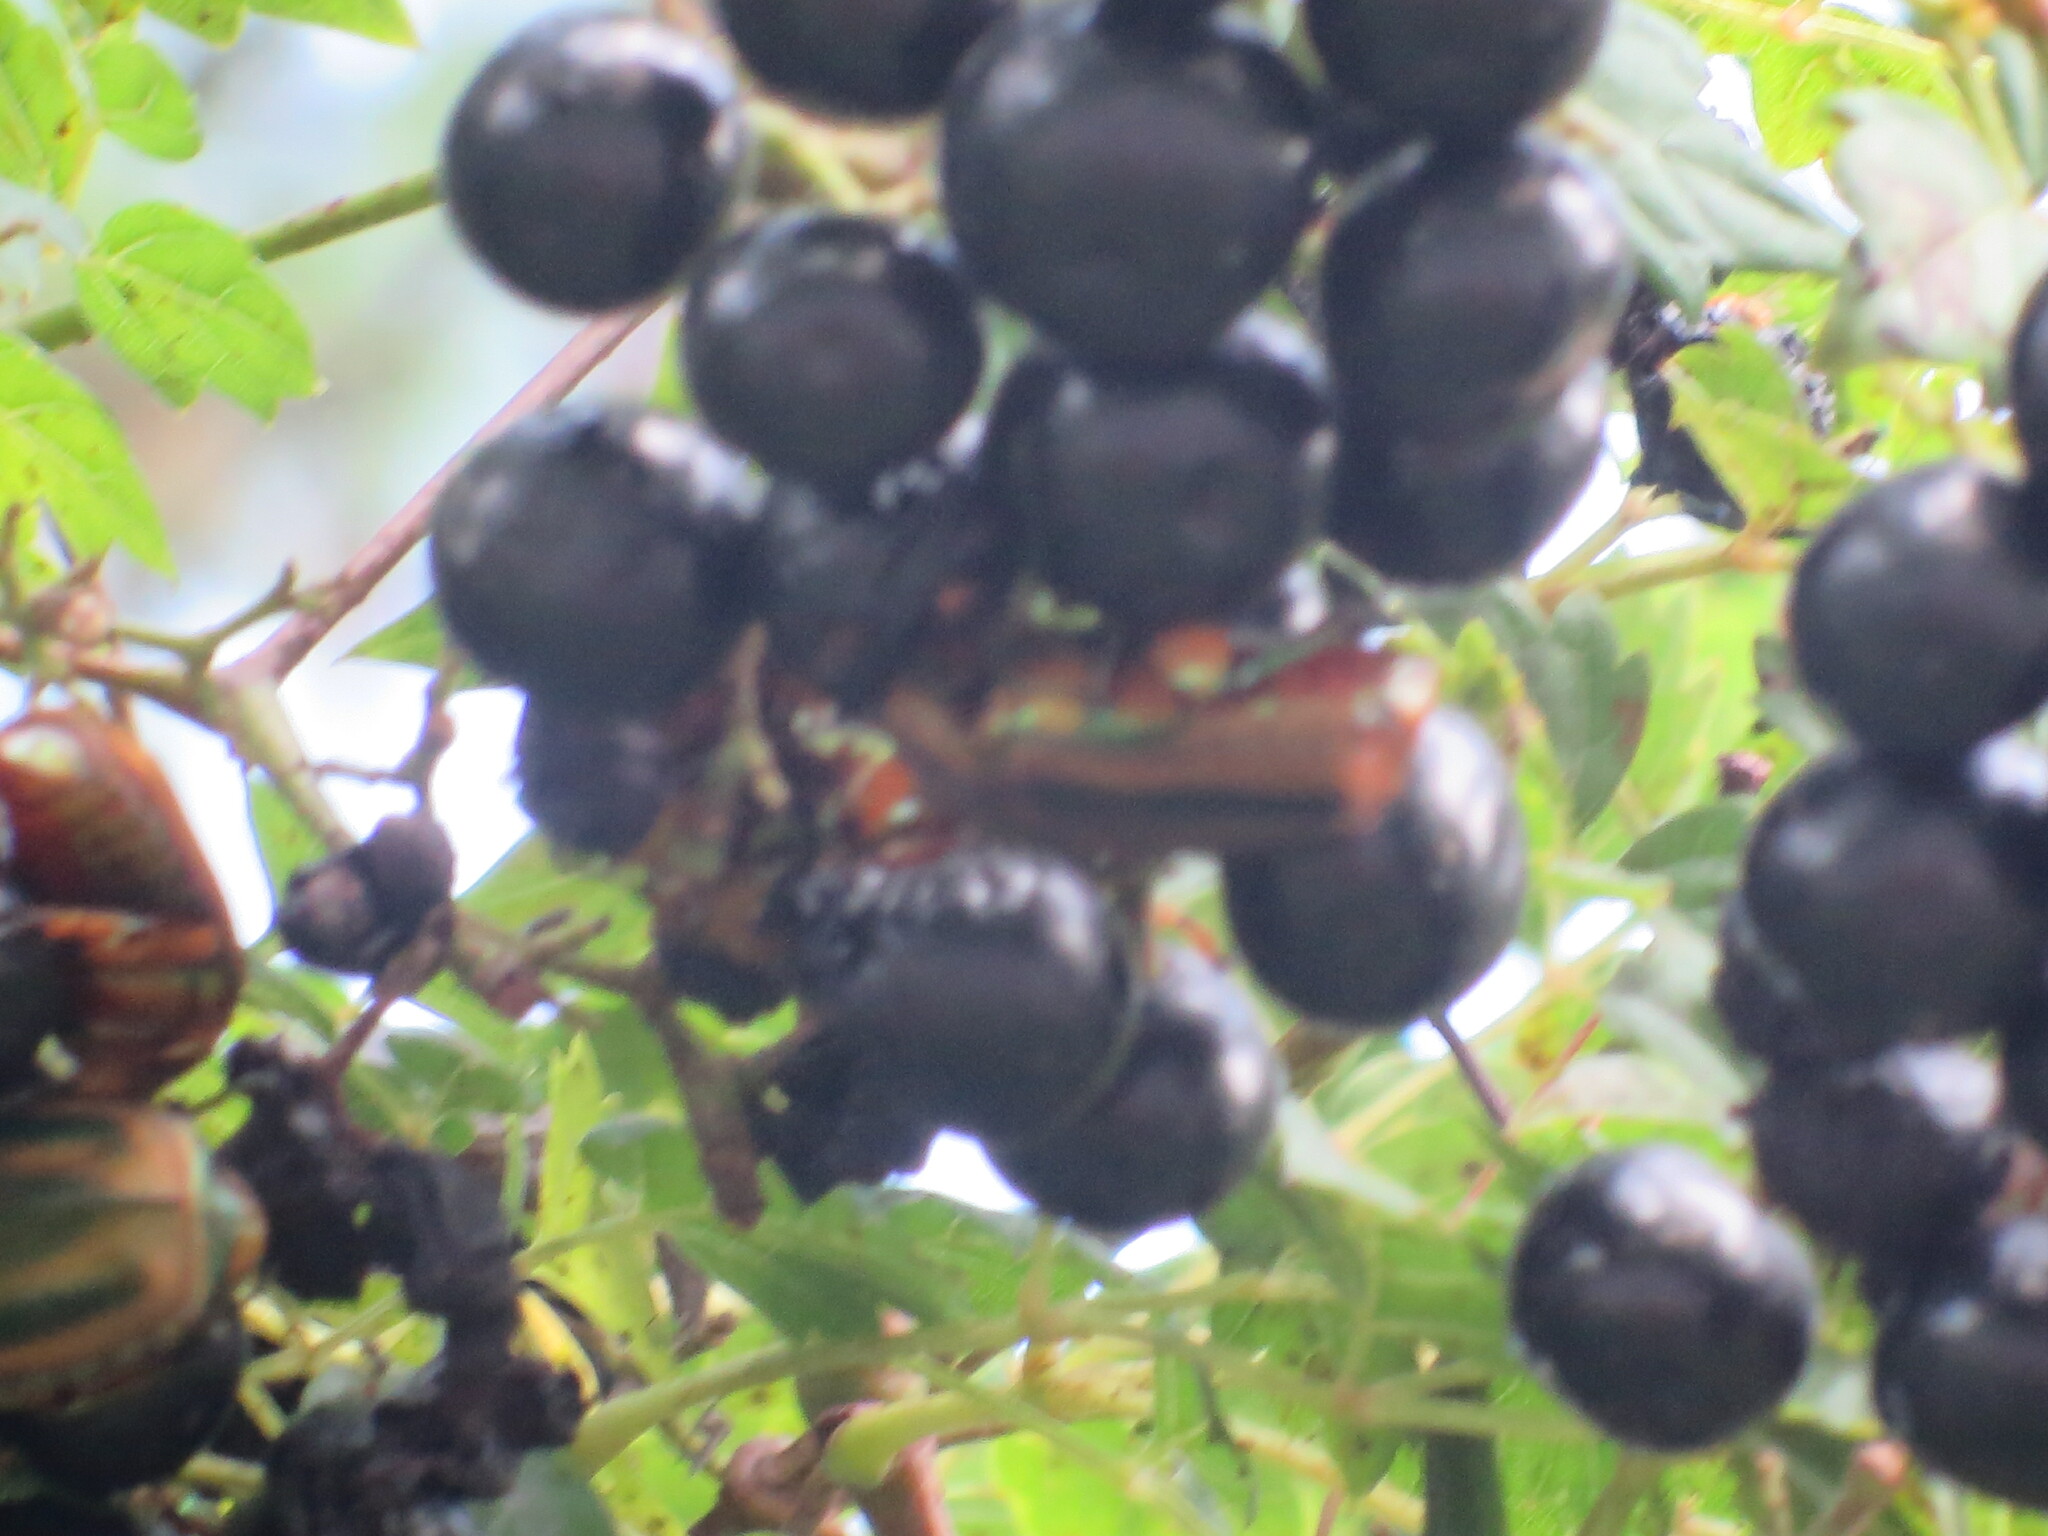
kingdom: Animalia
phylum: Arthropoda
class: Insecta
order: Coleoptera
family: Scarabaeidae
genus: Cotinis
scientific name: Cotinis nitida
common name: Common green june beetle
